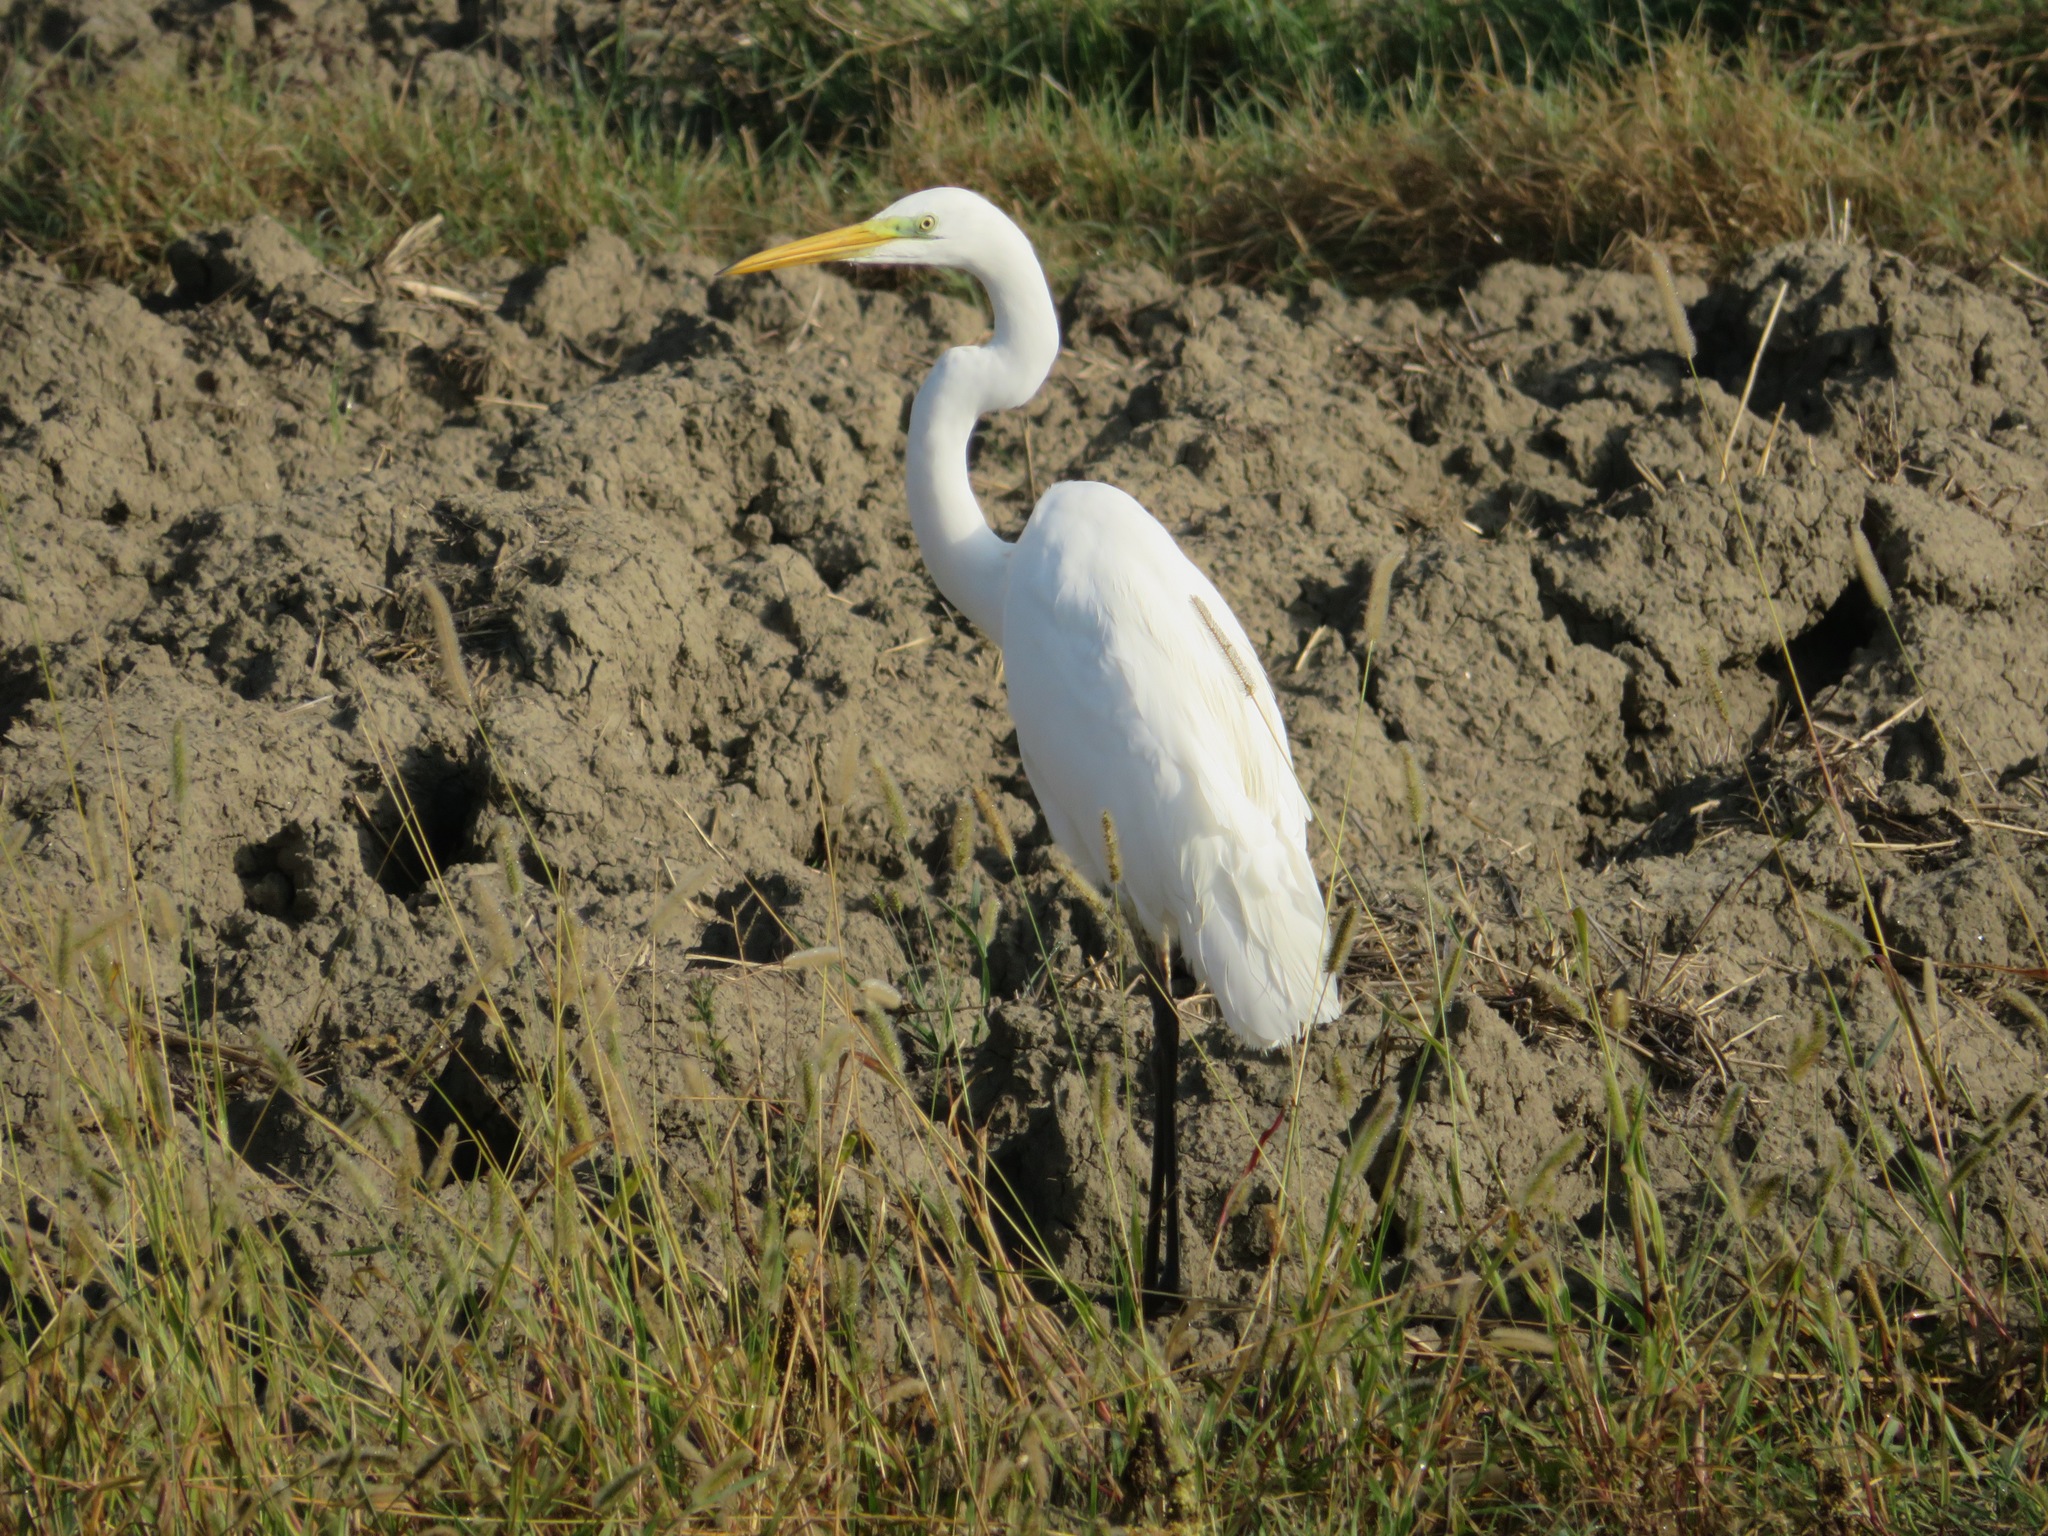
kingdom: Animalia
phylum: Chordata
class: Aves
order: Pelecaniformes
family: Ardeidae
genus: Ardea
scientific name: Ardea alba
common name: Great egret
